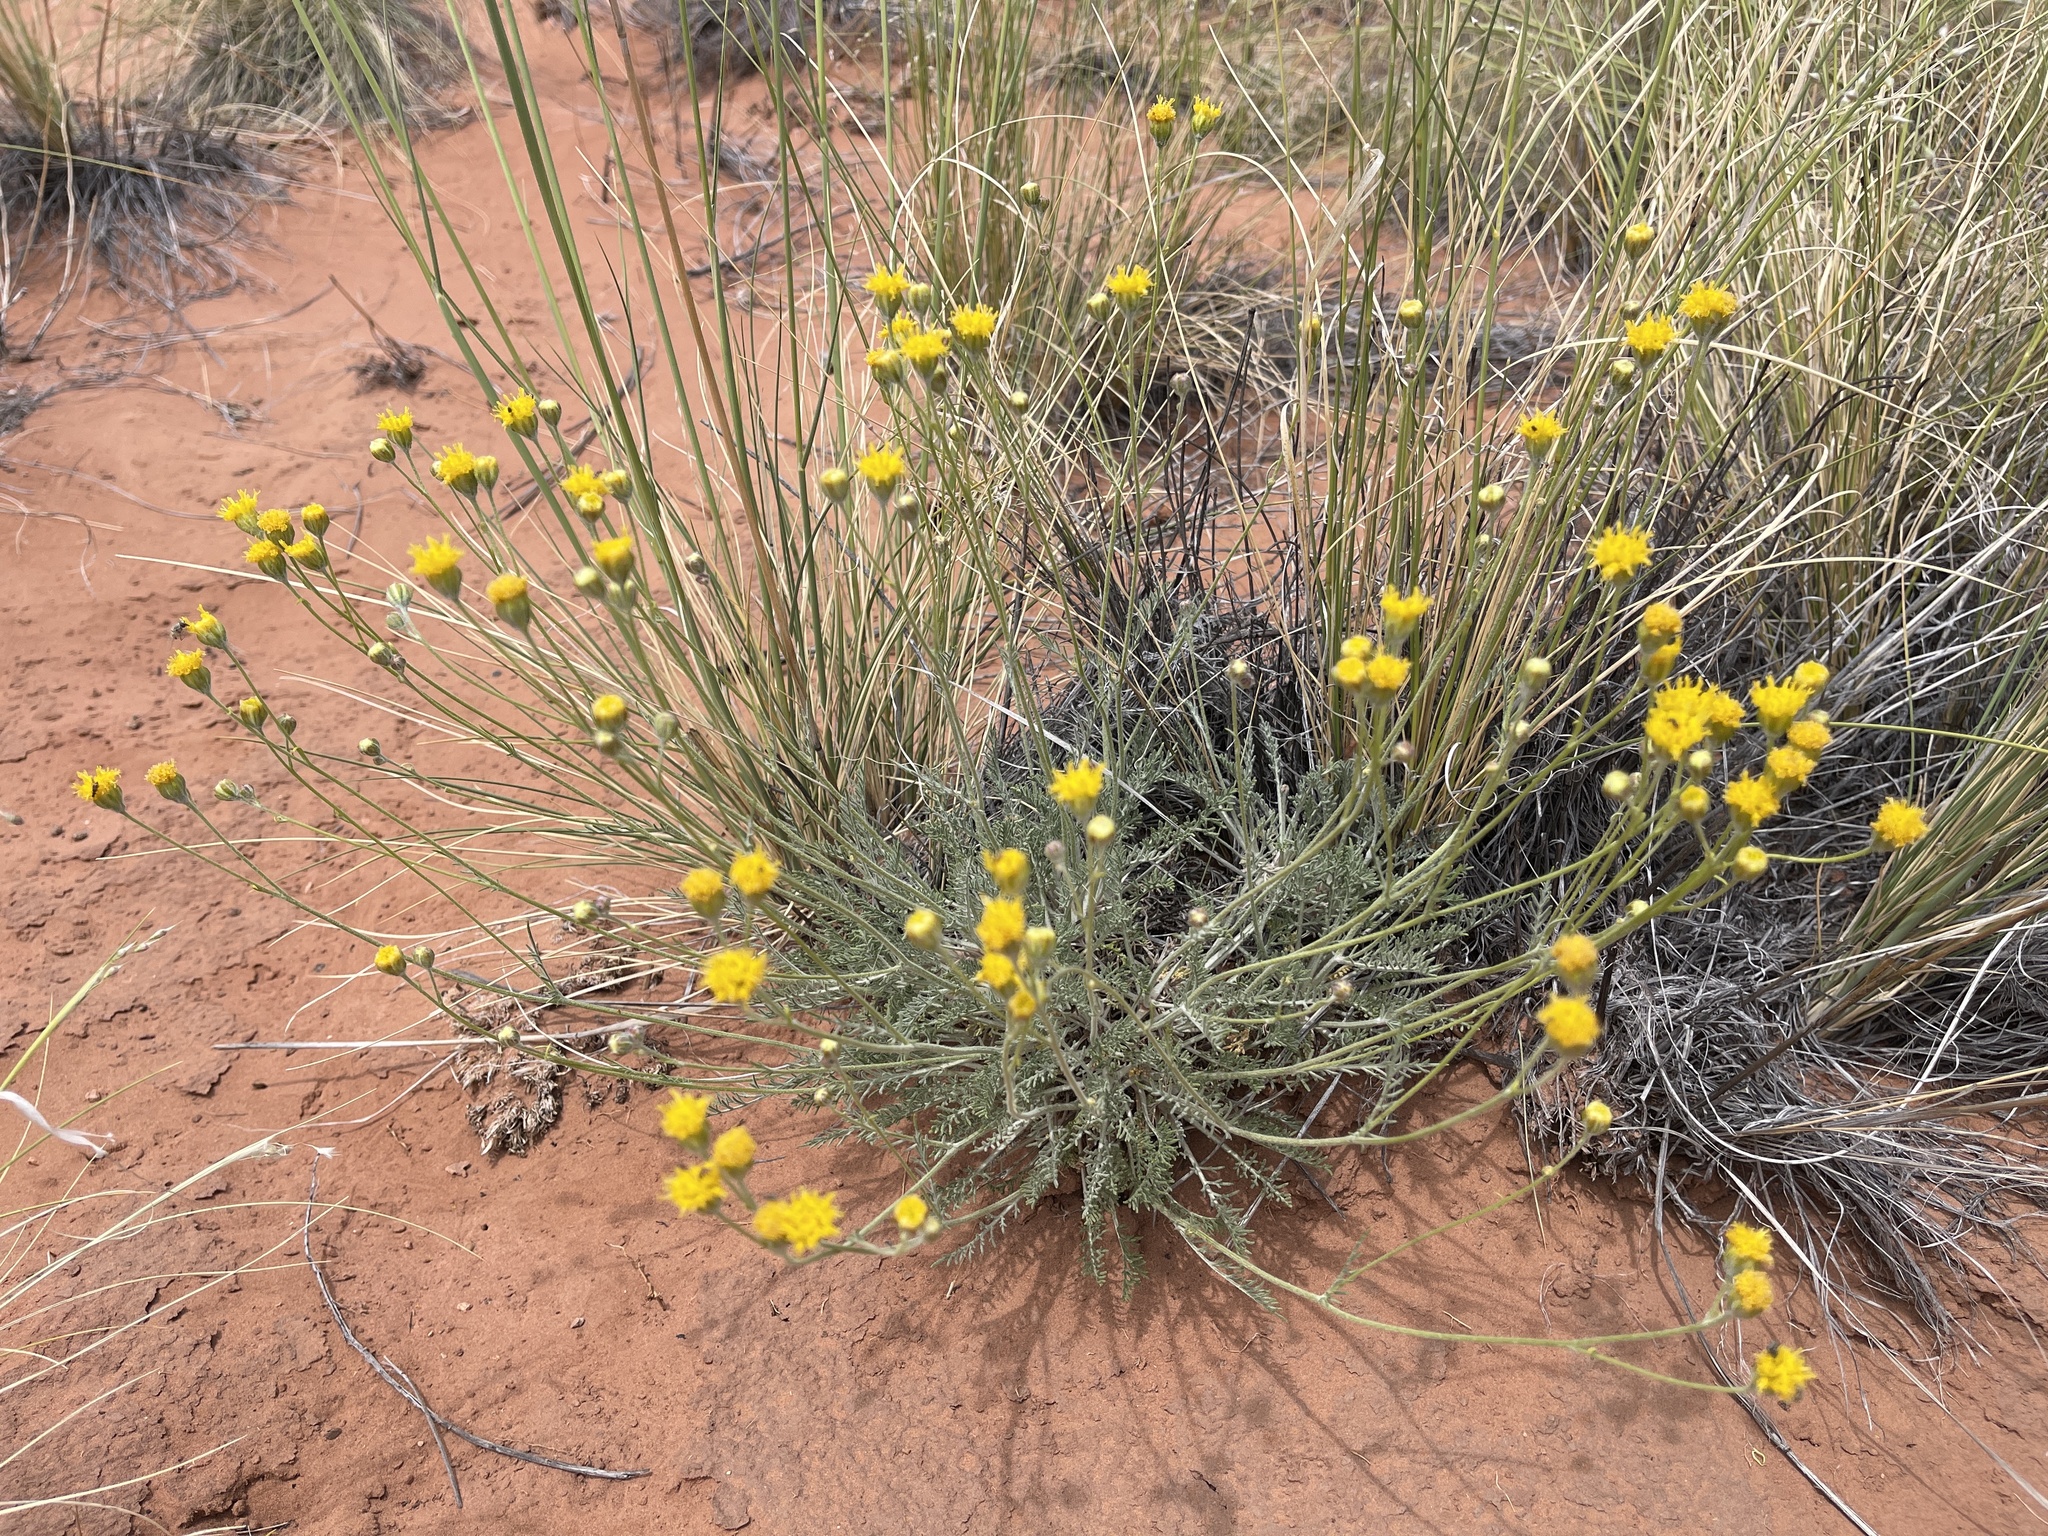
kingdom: Plantae
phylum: Tracheophyta
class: Magnoliopsida
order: Asterales
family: Asteraceae
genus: Hymenopappus
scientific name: Hymenopappus filifolius
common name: Columbia cutleaf
